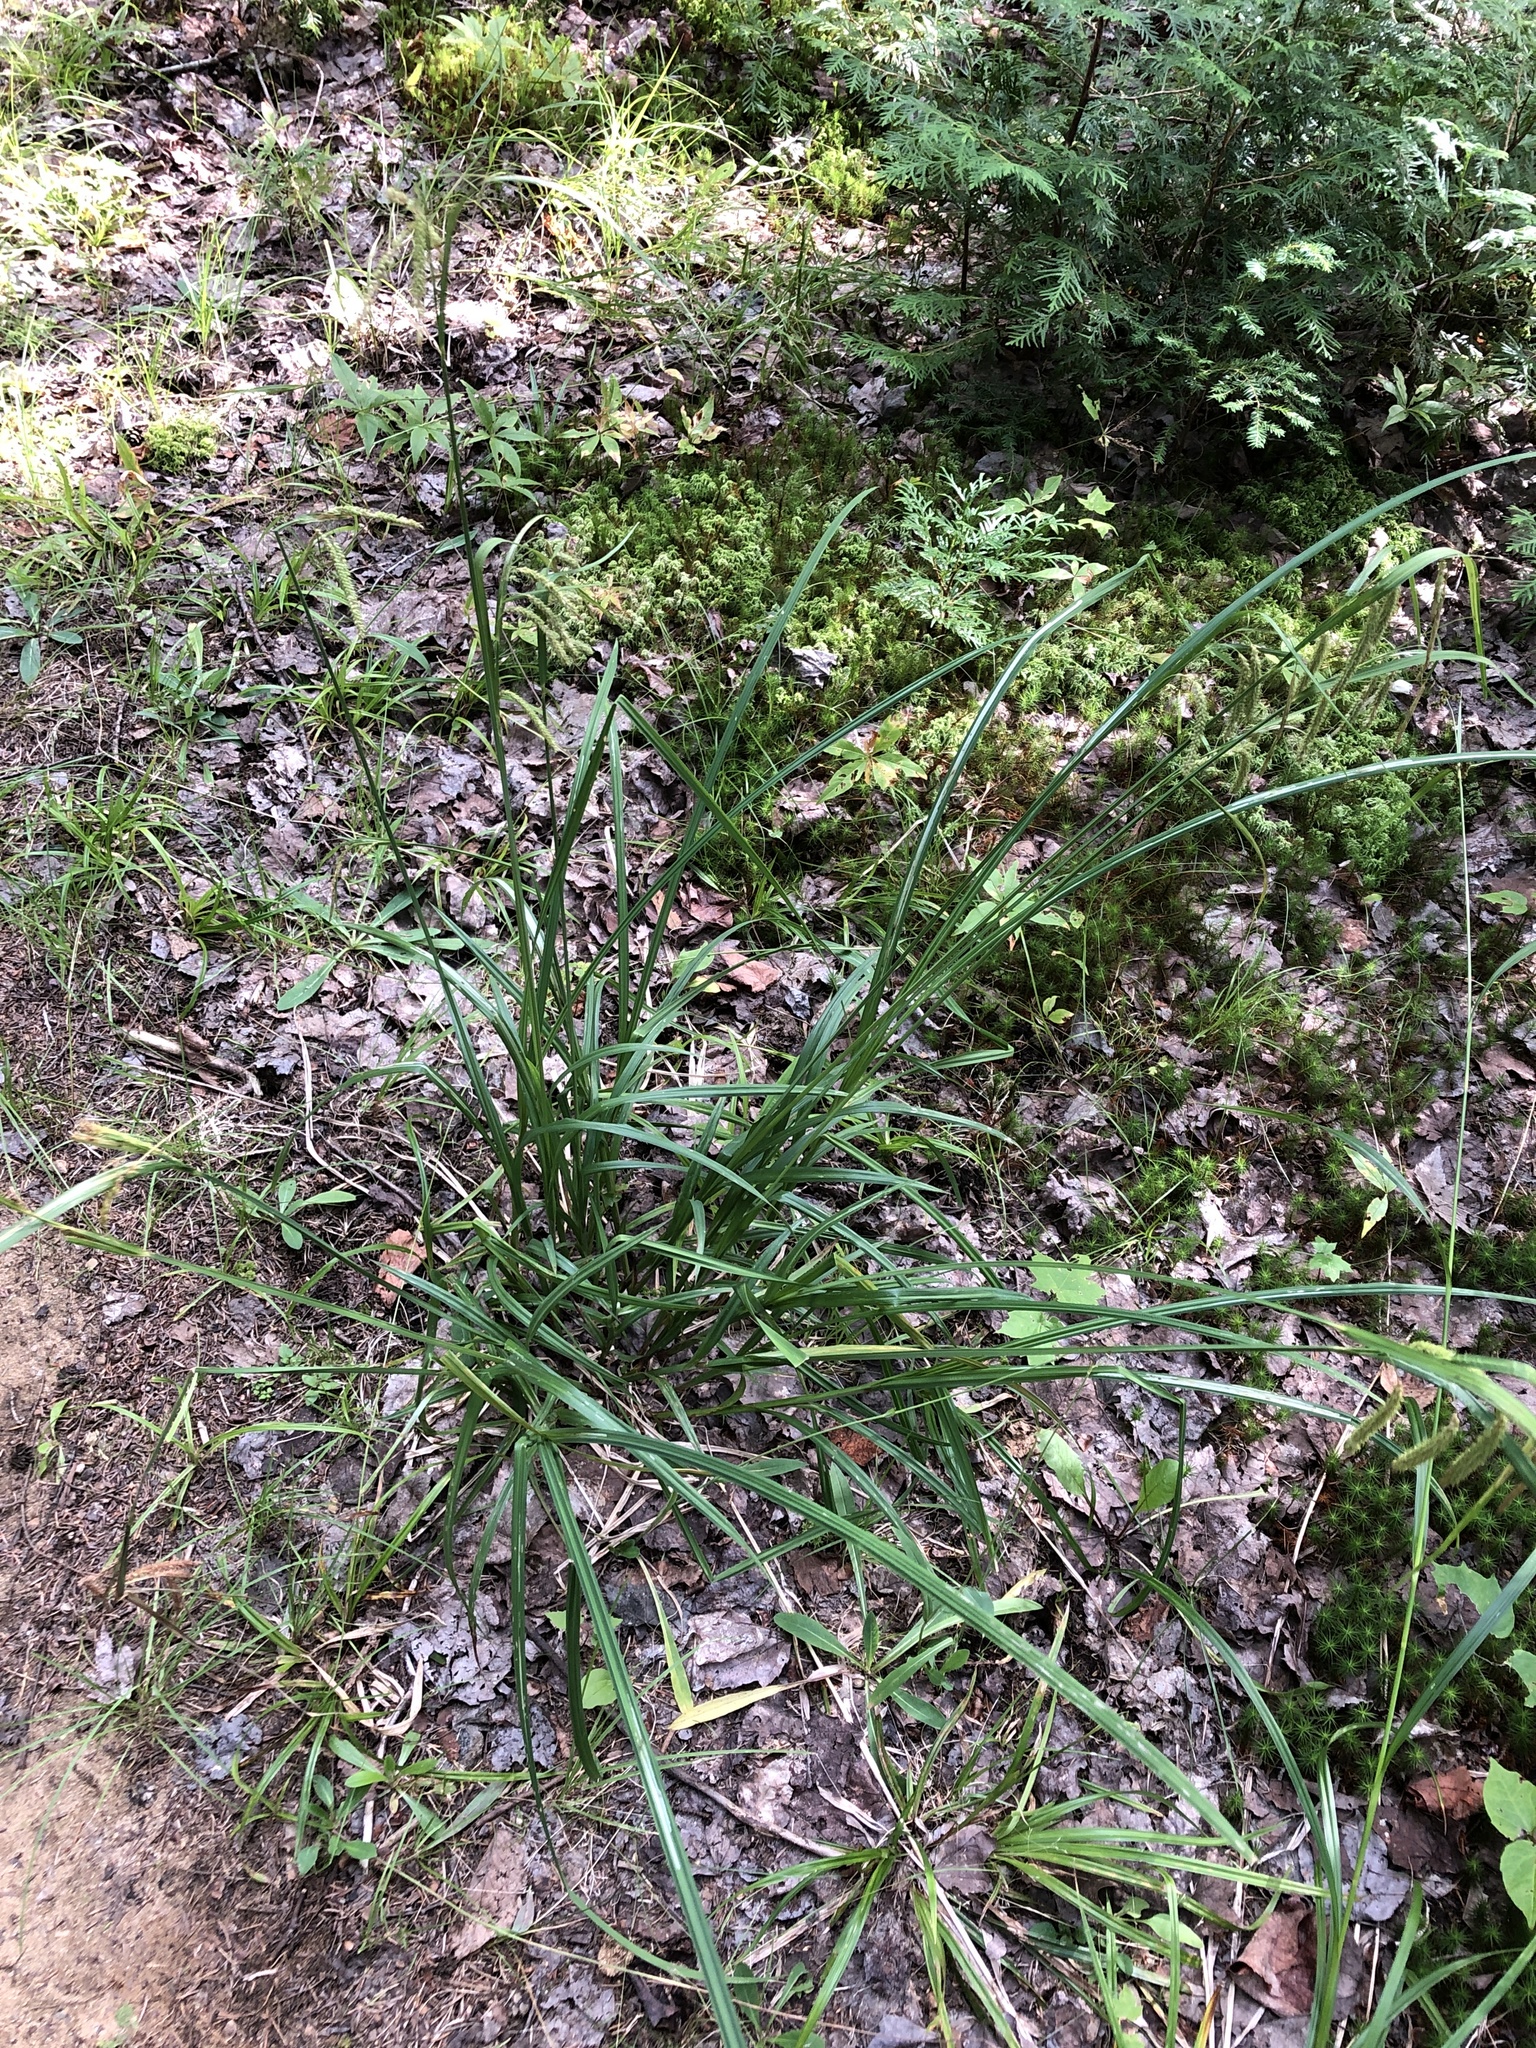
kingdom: Plantae
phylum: Tracheophyta
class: Liliopsida
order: Poales
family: Cyperaceae
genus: Carex
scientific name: Carex crinita
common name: Fringed sedge
